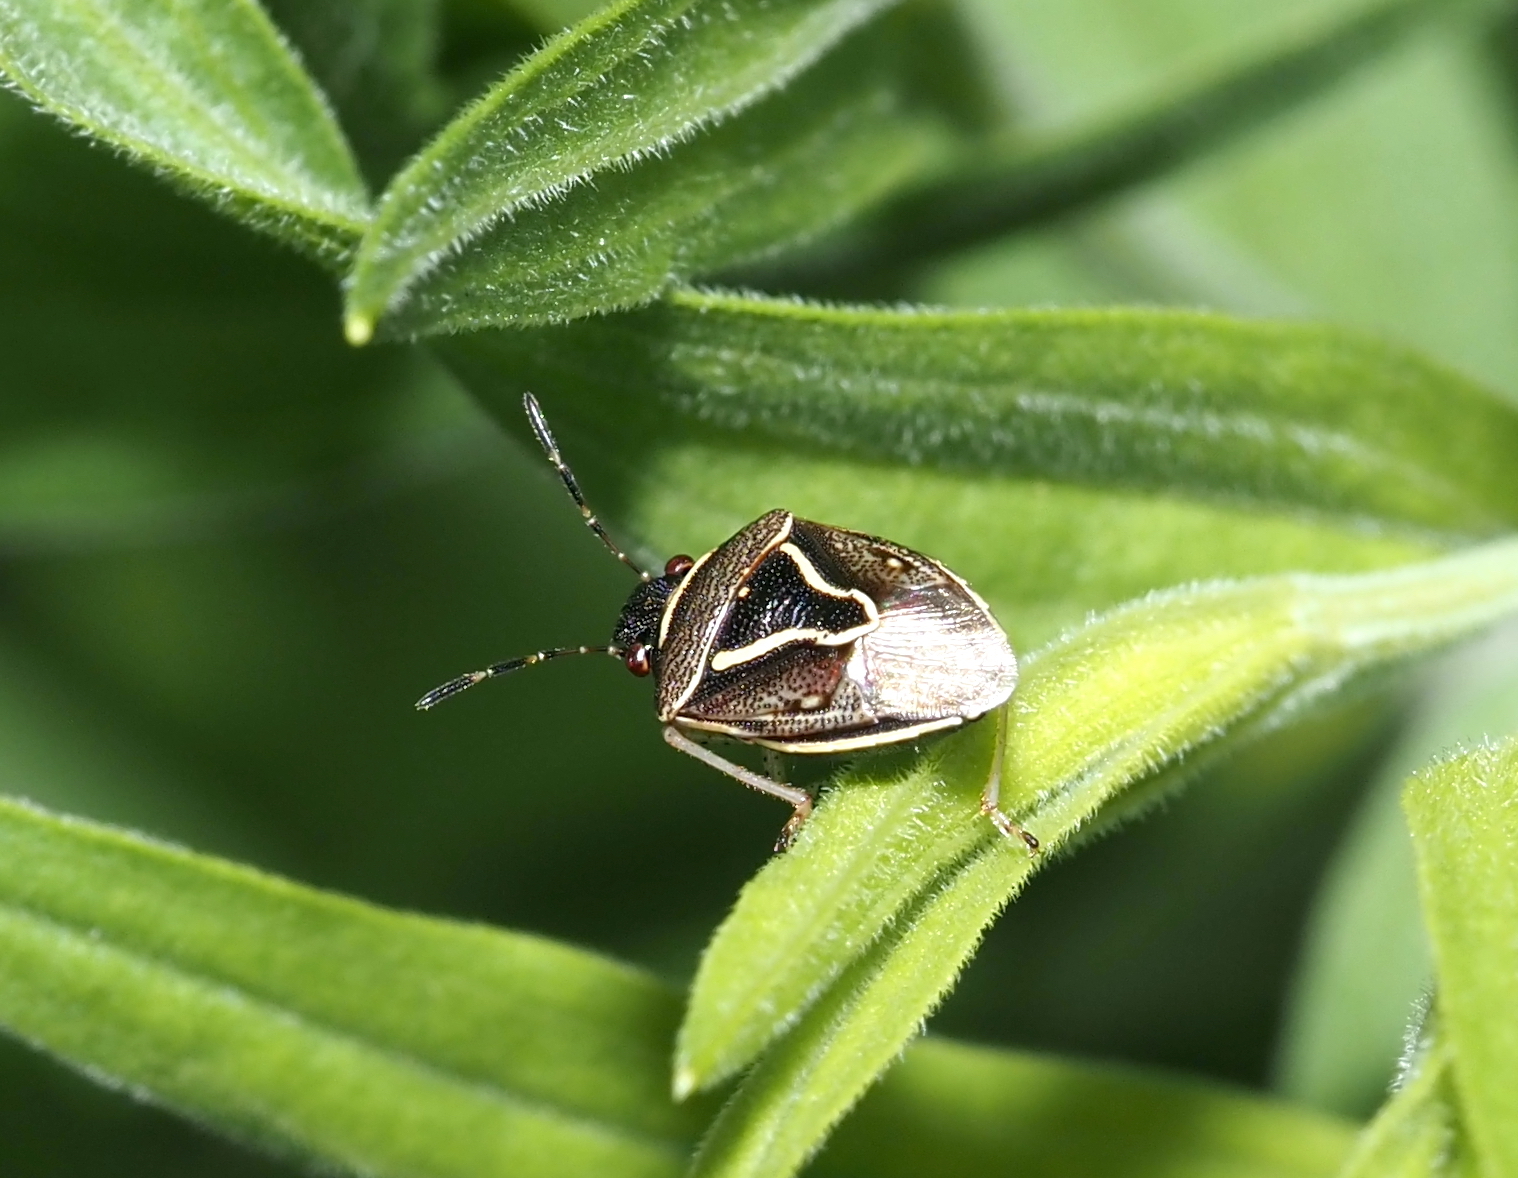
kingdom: Animalia
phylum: Arthropoda
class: Insecta
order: Hemiptera
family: Pentatomidae
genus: Mormidea
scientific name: Mormidea lugens
